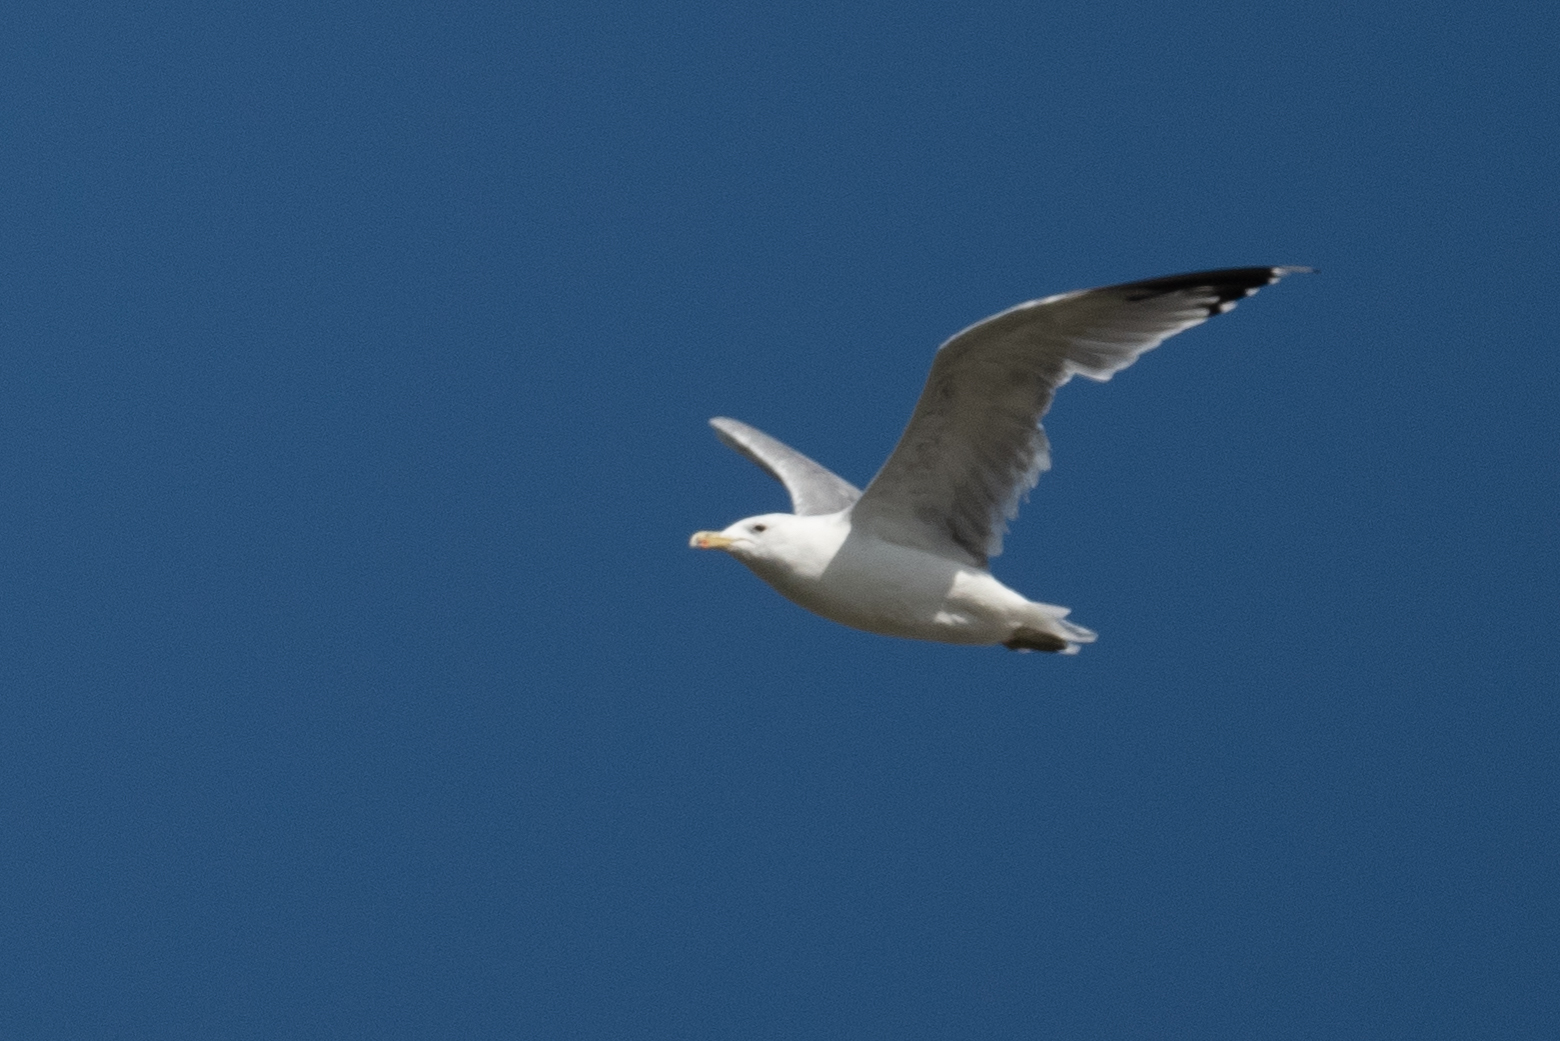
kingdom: Animalia
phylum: Chordata
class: Aves
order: Charadriiformes
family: Laridae
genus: Larus
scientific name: Larus californicus
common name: California gull
